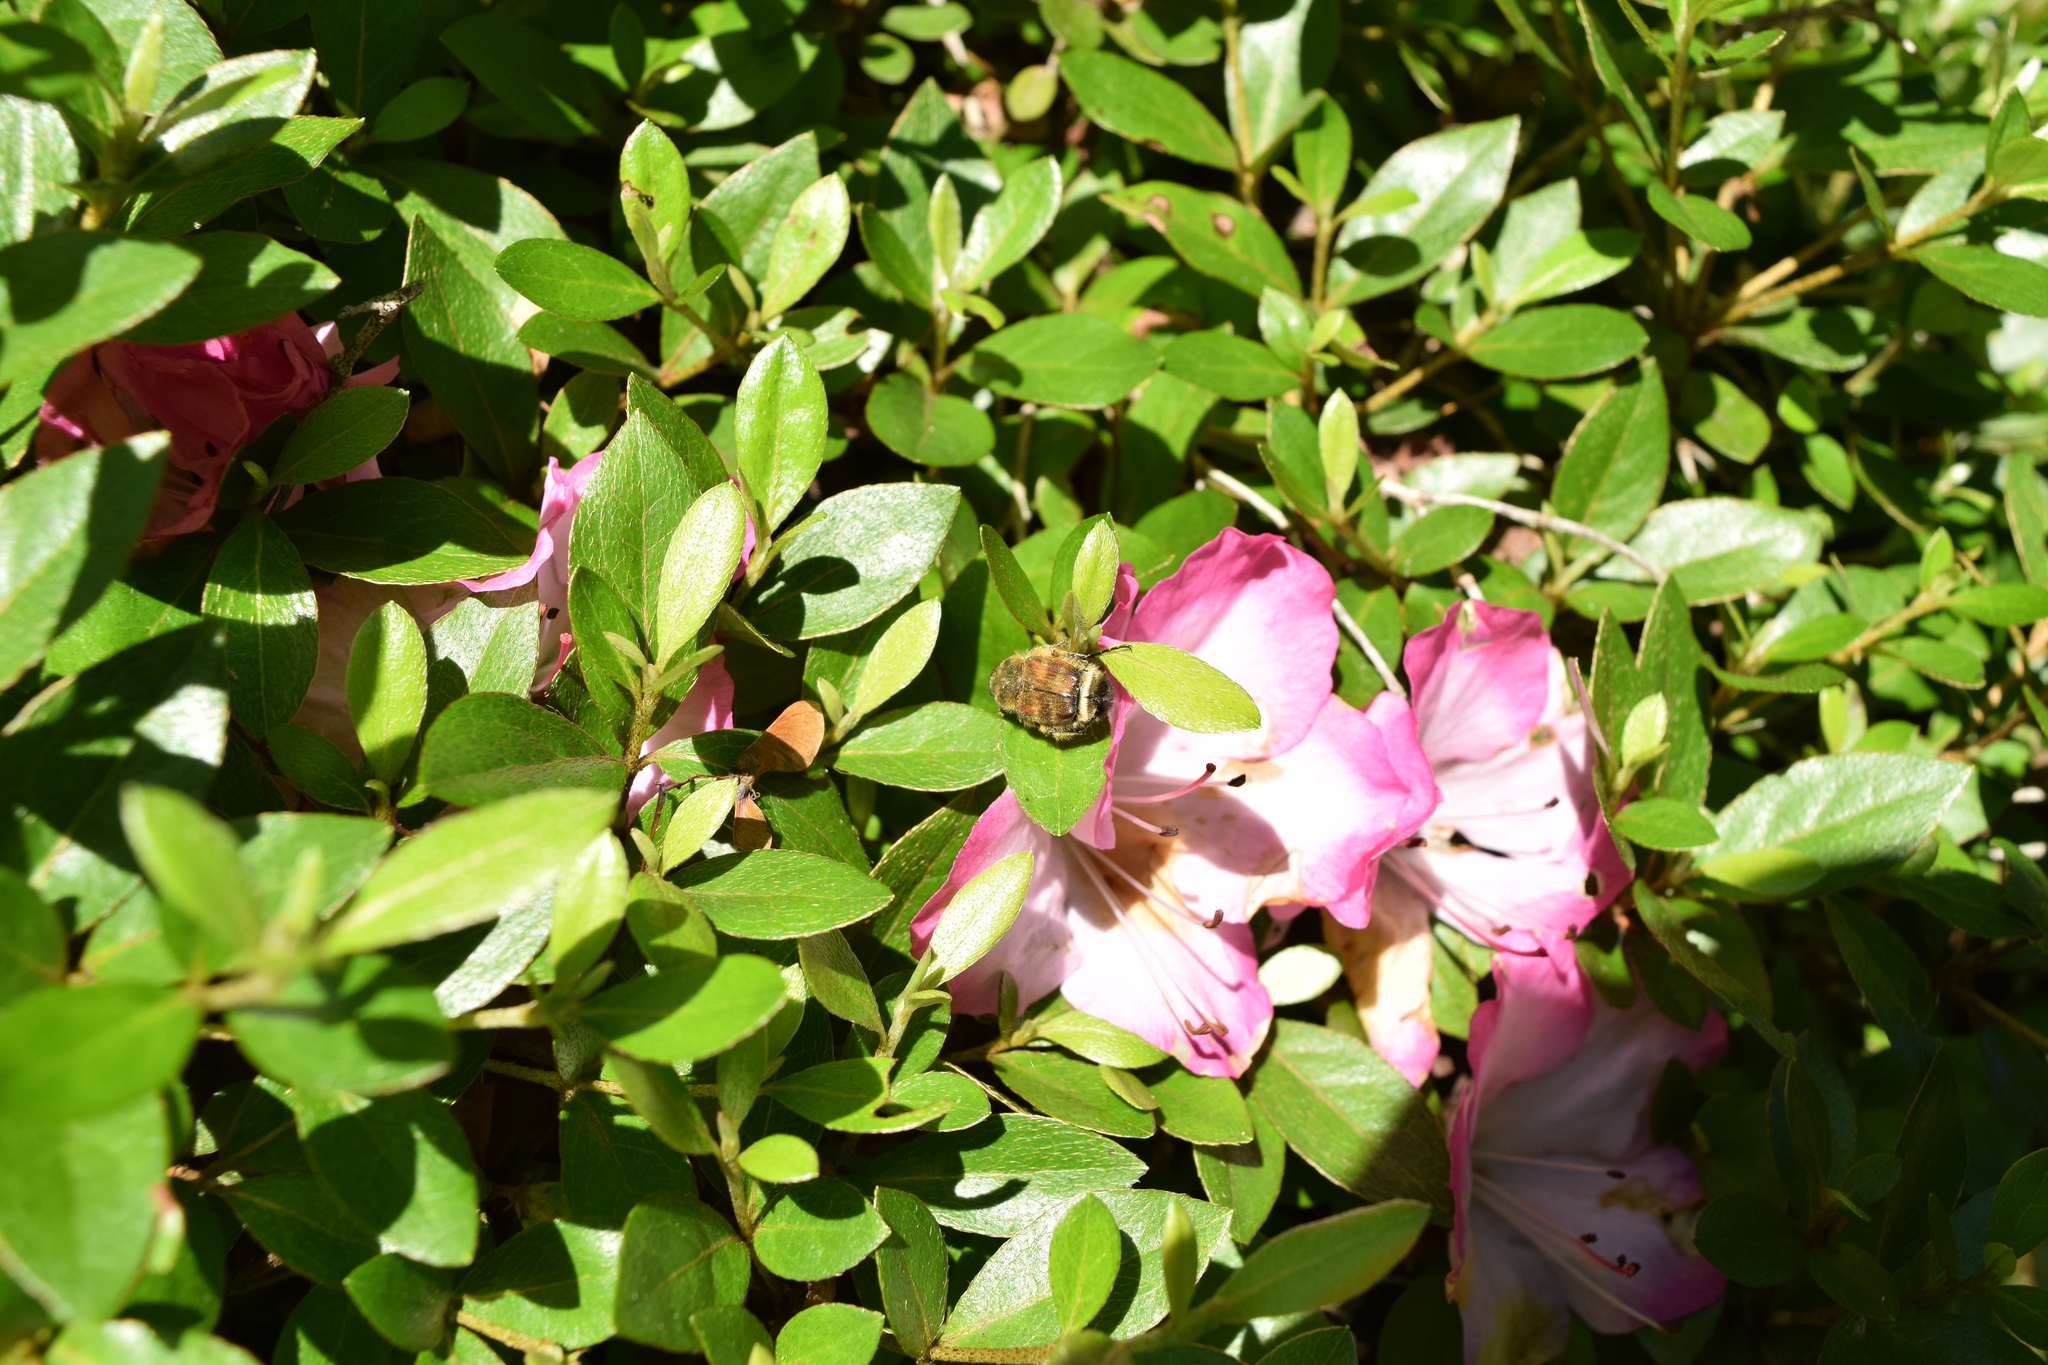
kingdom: Animalia
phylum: Arthropoda
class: Insecta
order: Coleoptera
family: Scarabaeidae
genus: Lasiotrichius
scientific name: Lasiotrichius succinctus
